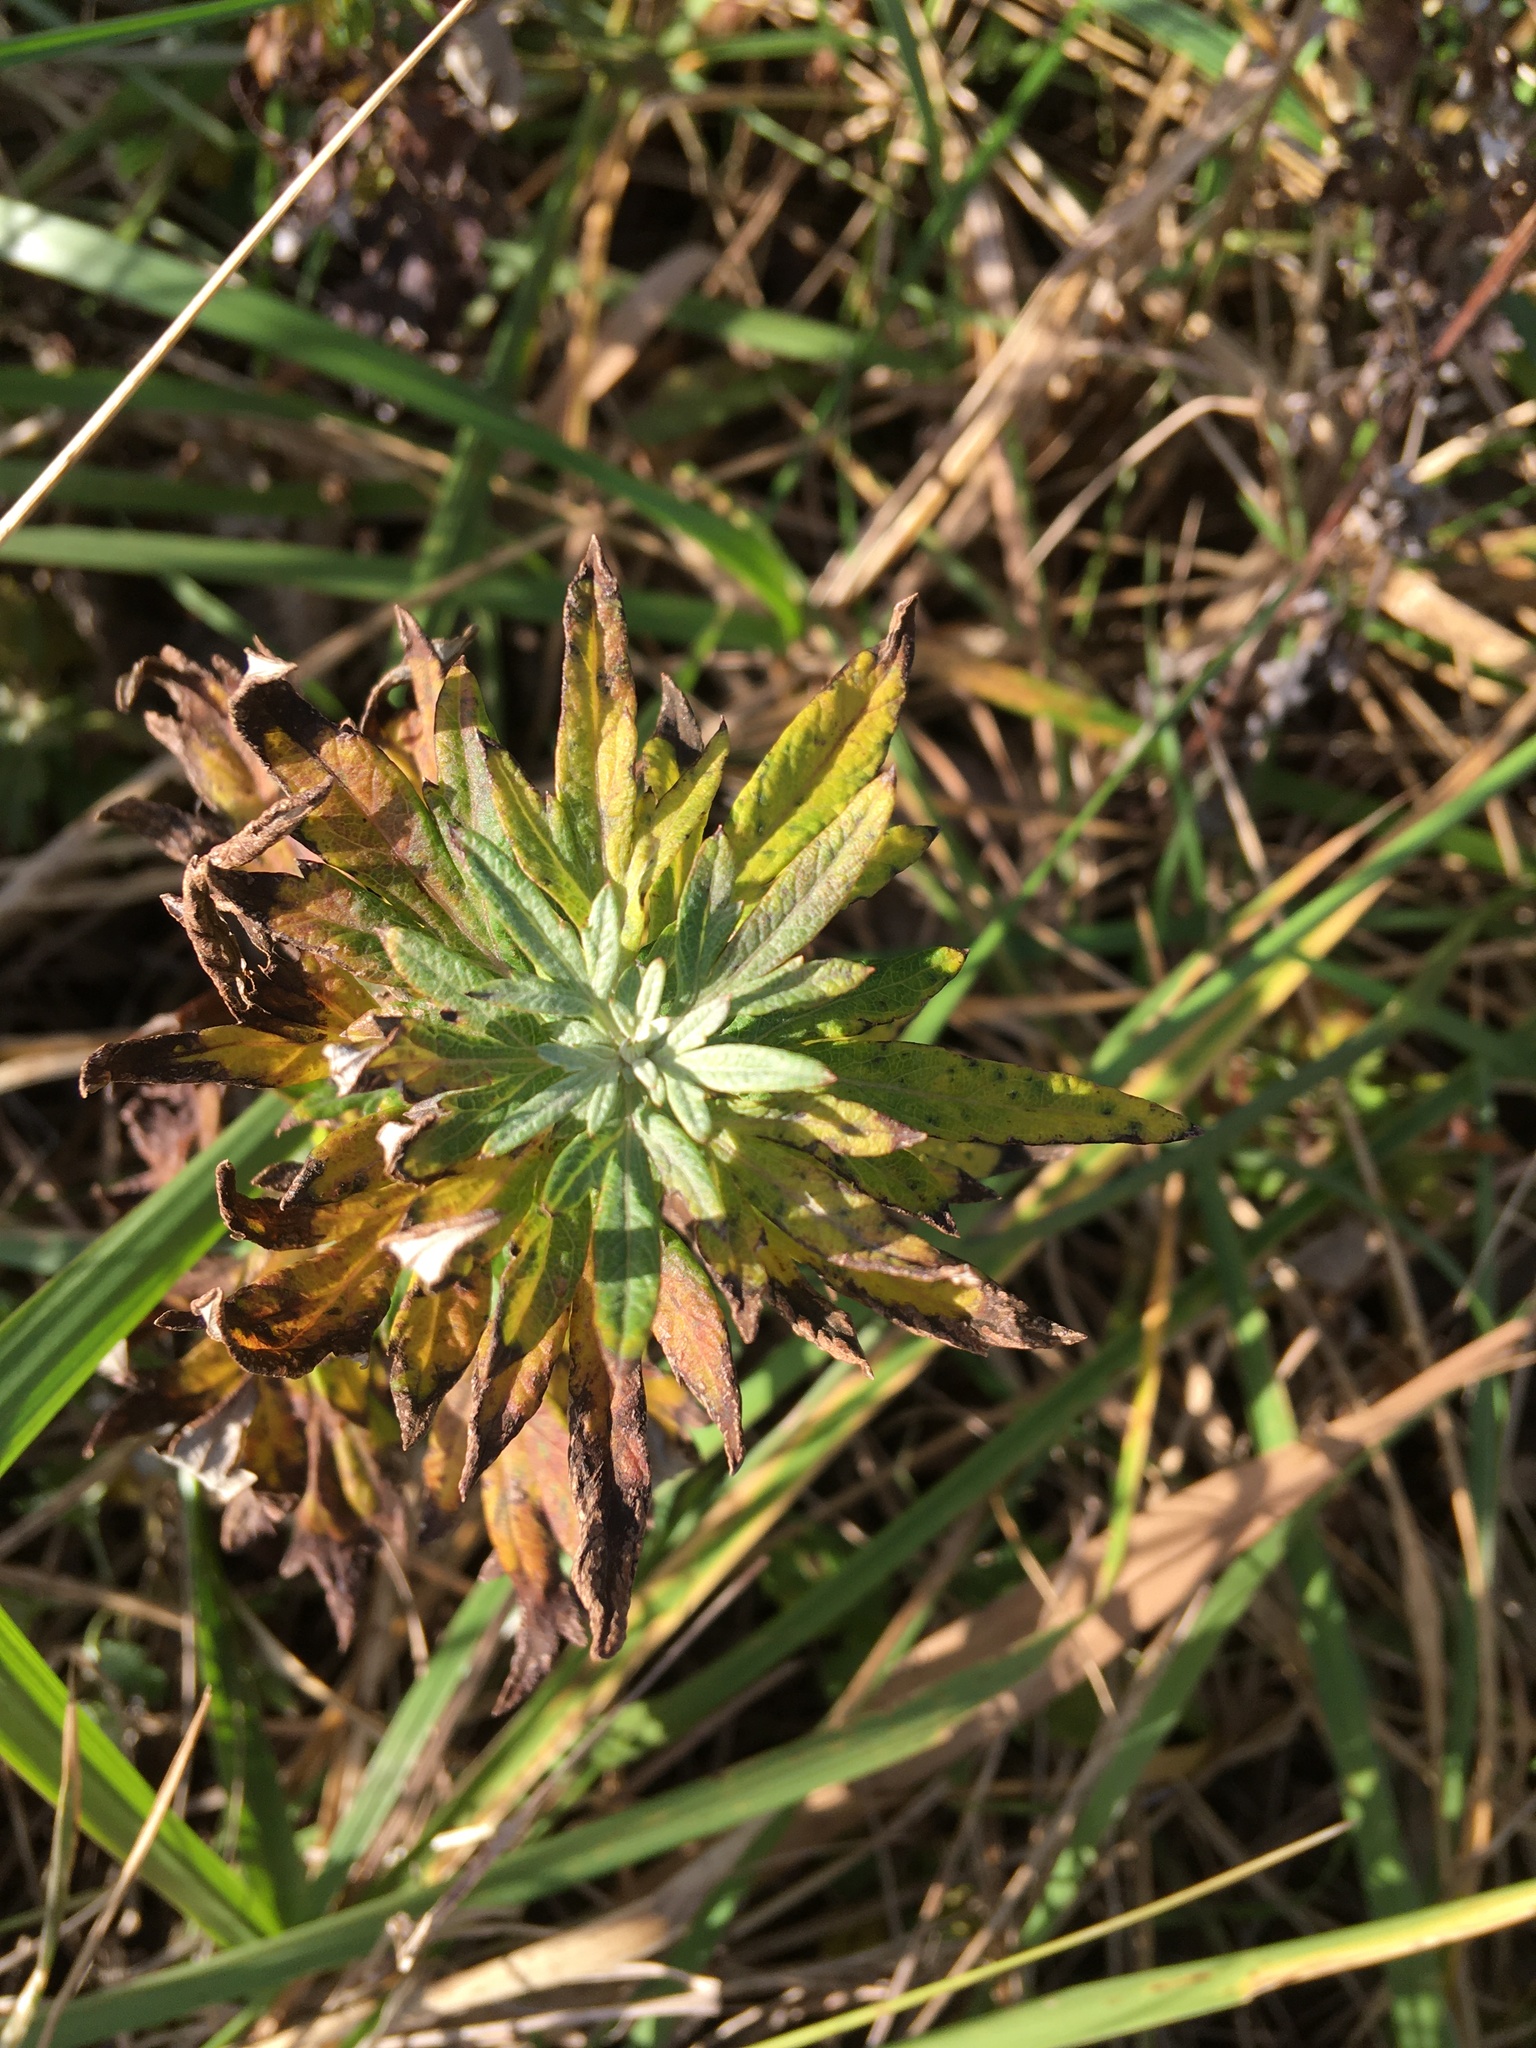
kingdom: Plantae
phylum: Tracheophyta
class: Magnoliopsida
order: Asterales
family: Asteraceae
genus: Artemisia
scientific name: Artemisia vulgaris
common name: Mugwort
